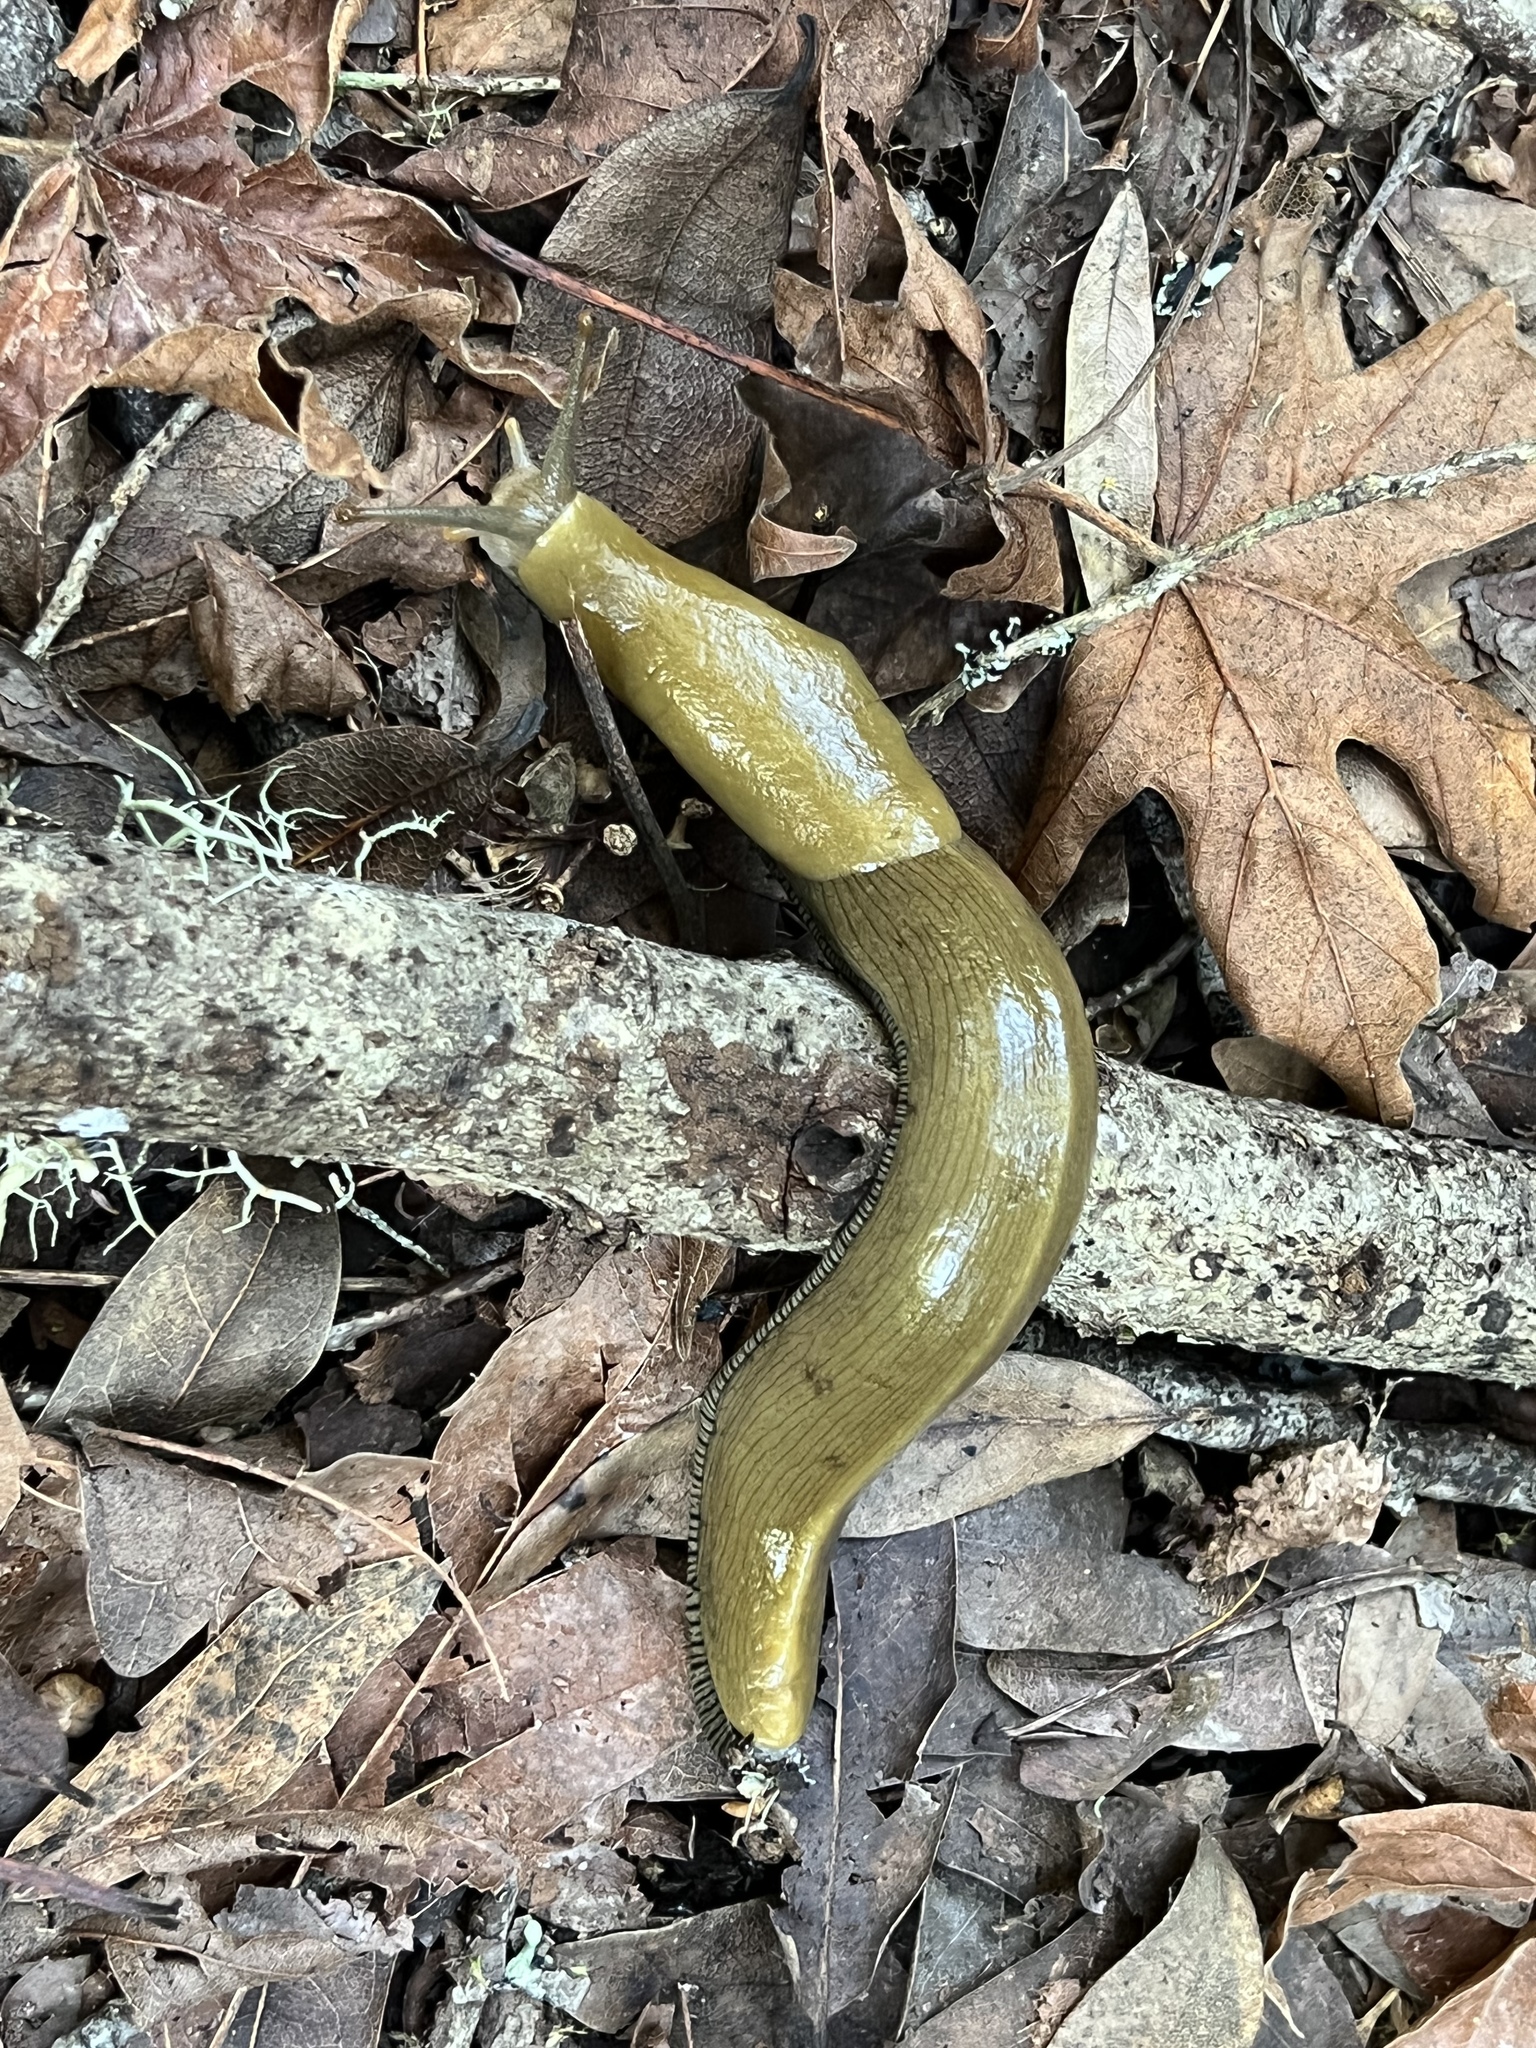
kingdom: Animalia
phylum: Mollusca
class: Gastropoda
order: Stylommatophora
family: Ariolimacidae
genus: Ariolimax
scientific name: Ariolimax buttoni
